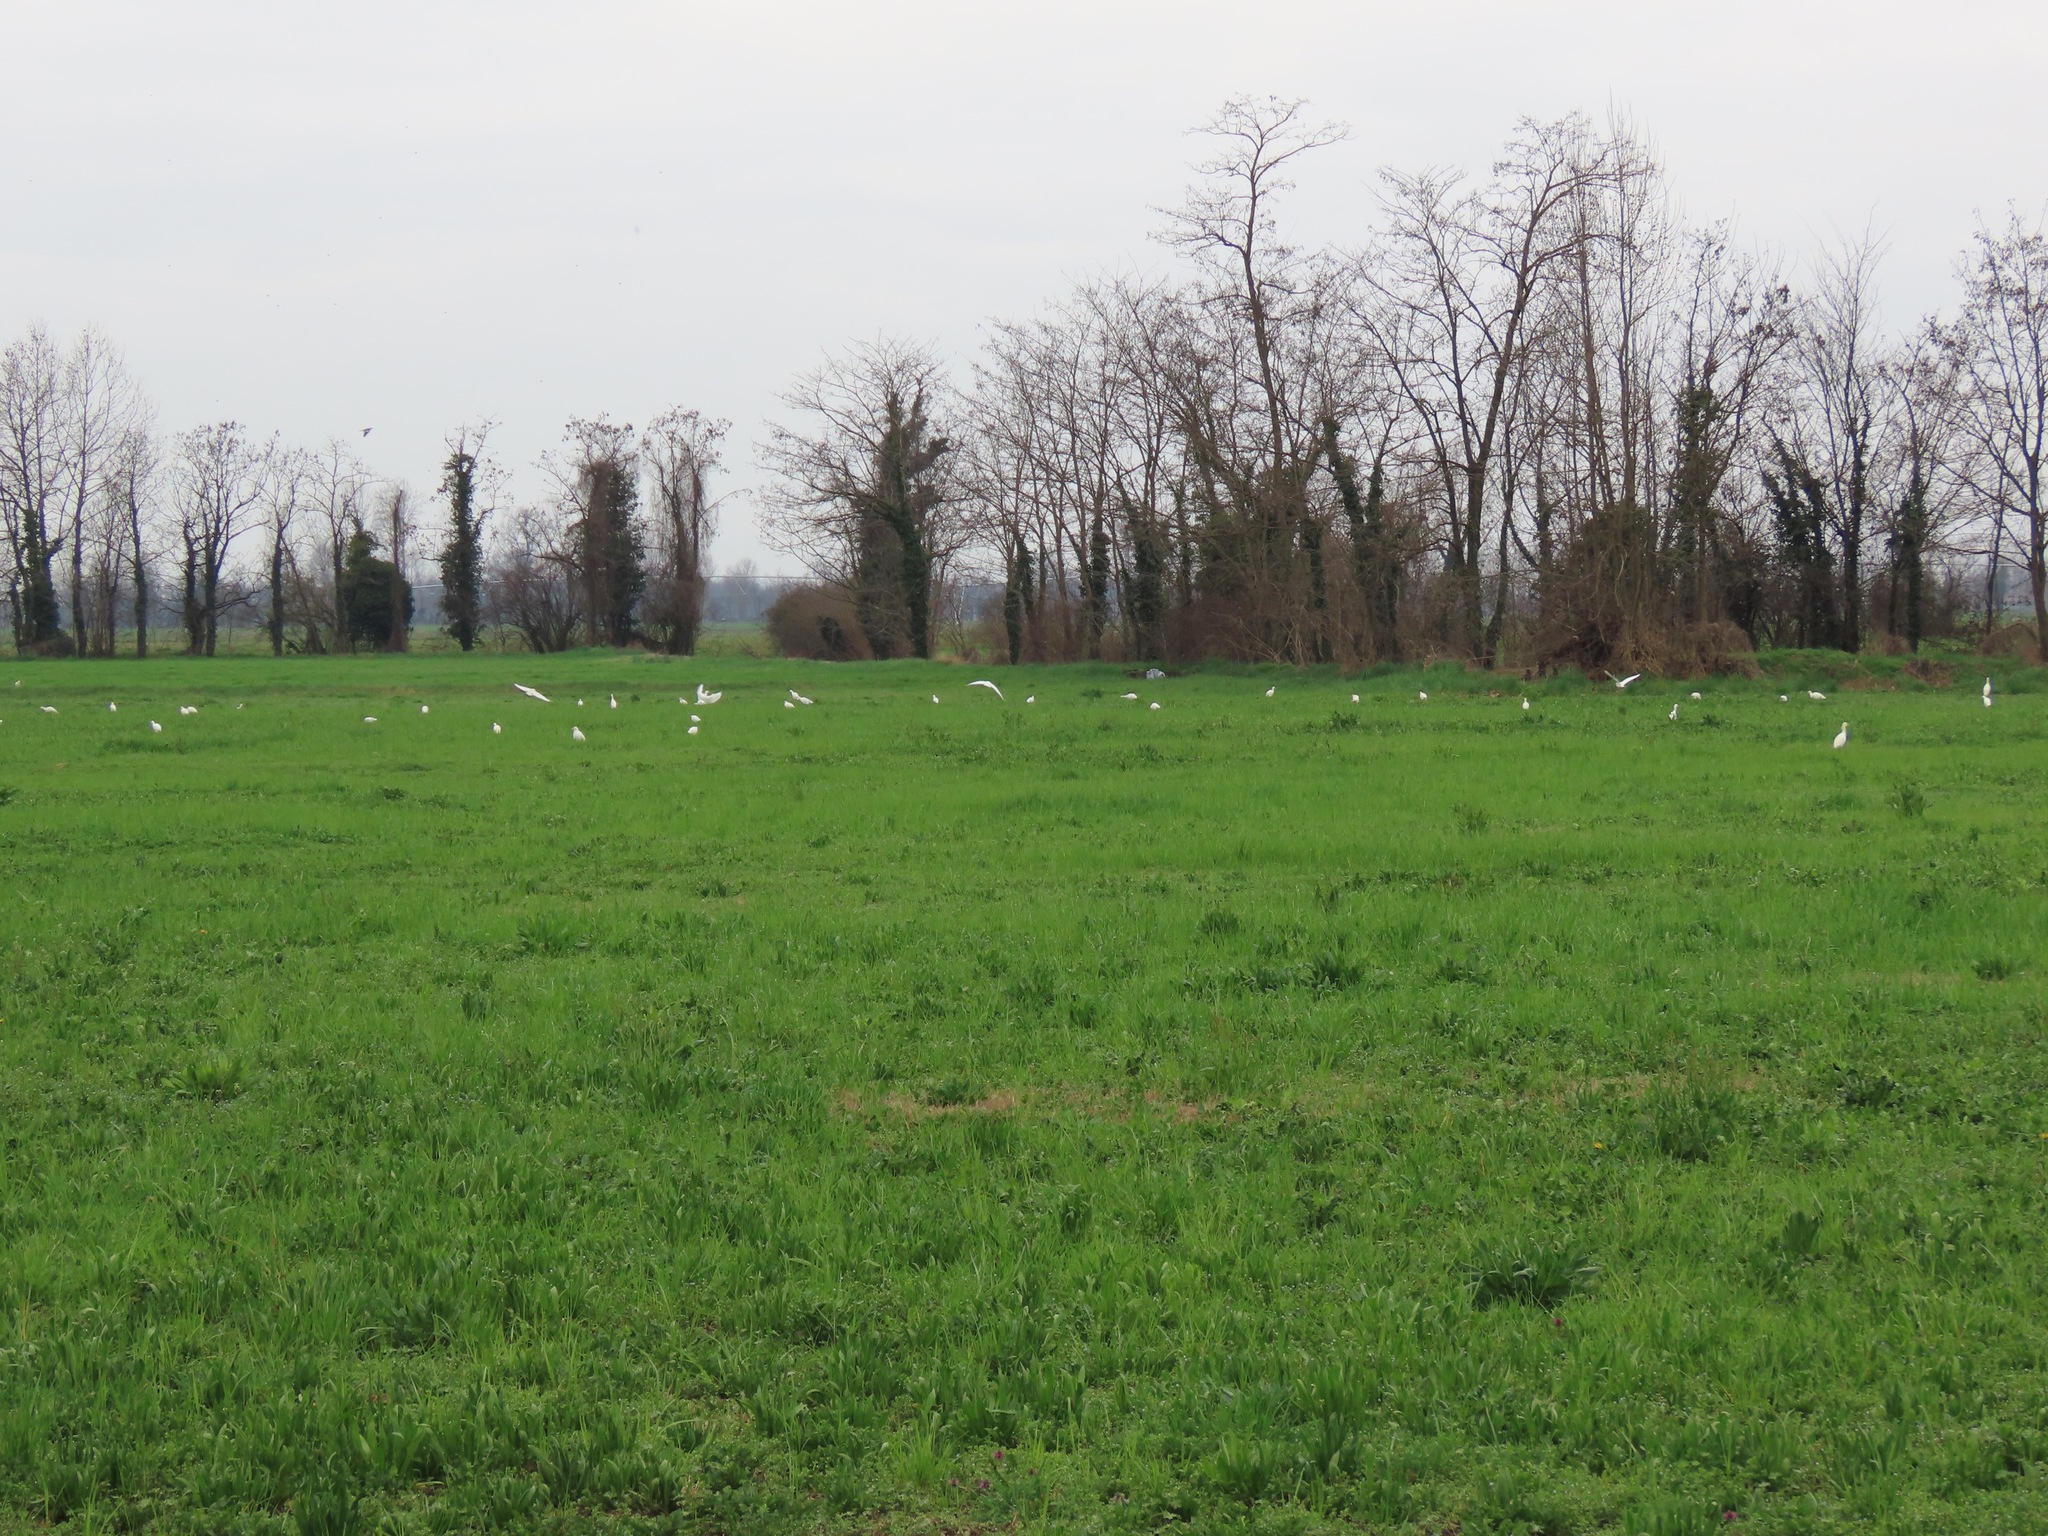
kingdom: Animalia
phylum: Chordata
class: Aves
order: Pelecaniformes
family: Ardeidae
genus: Bubulcus
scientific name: Bubulcus ibis
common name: Cattle egret
